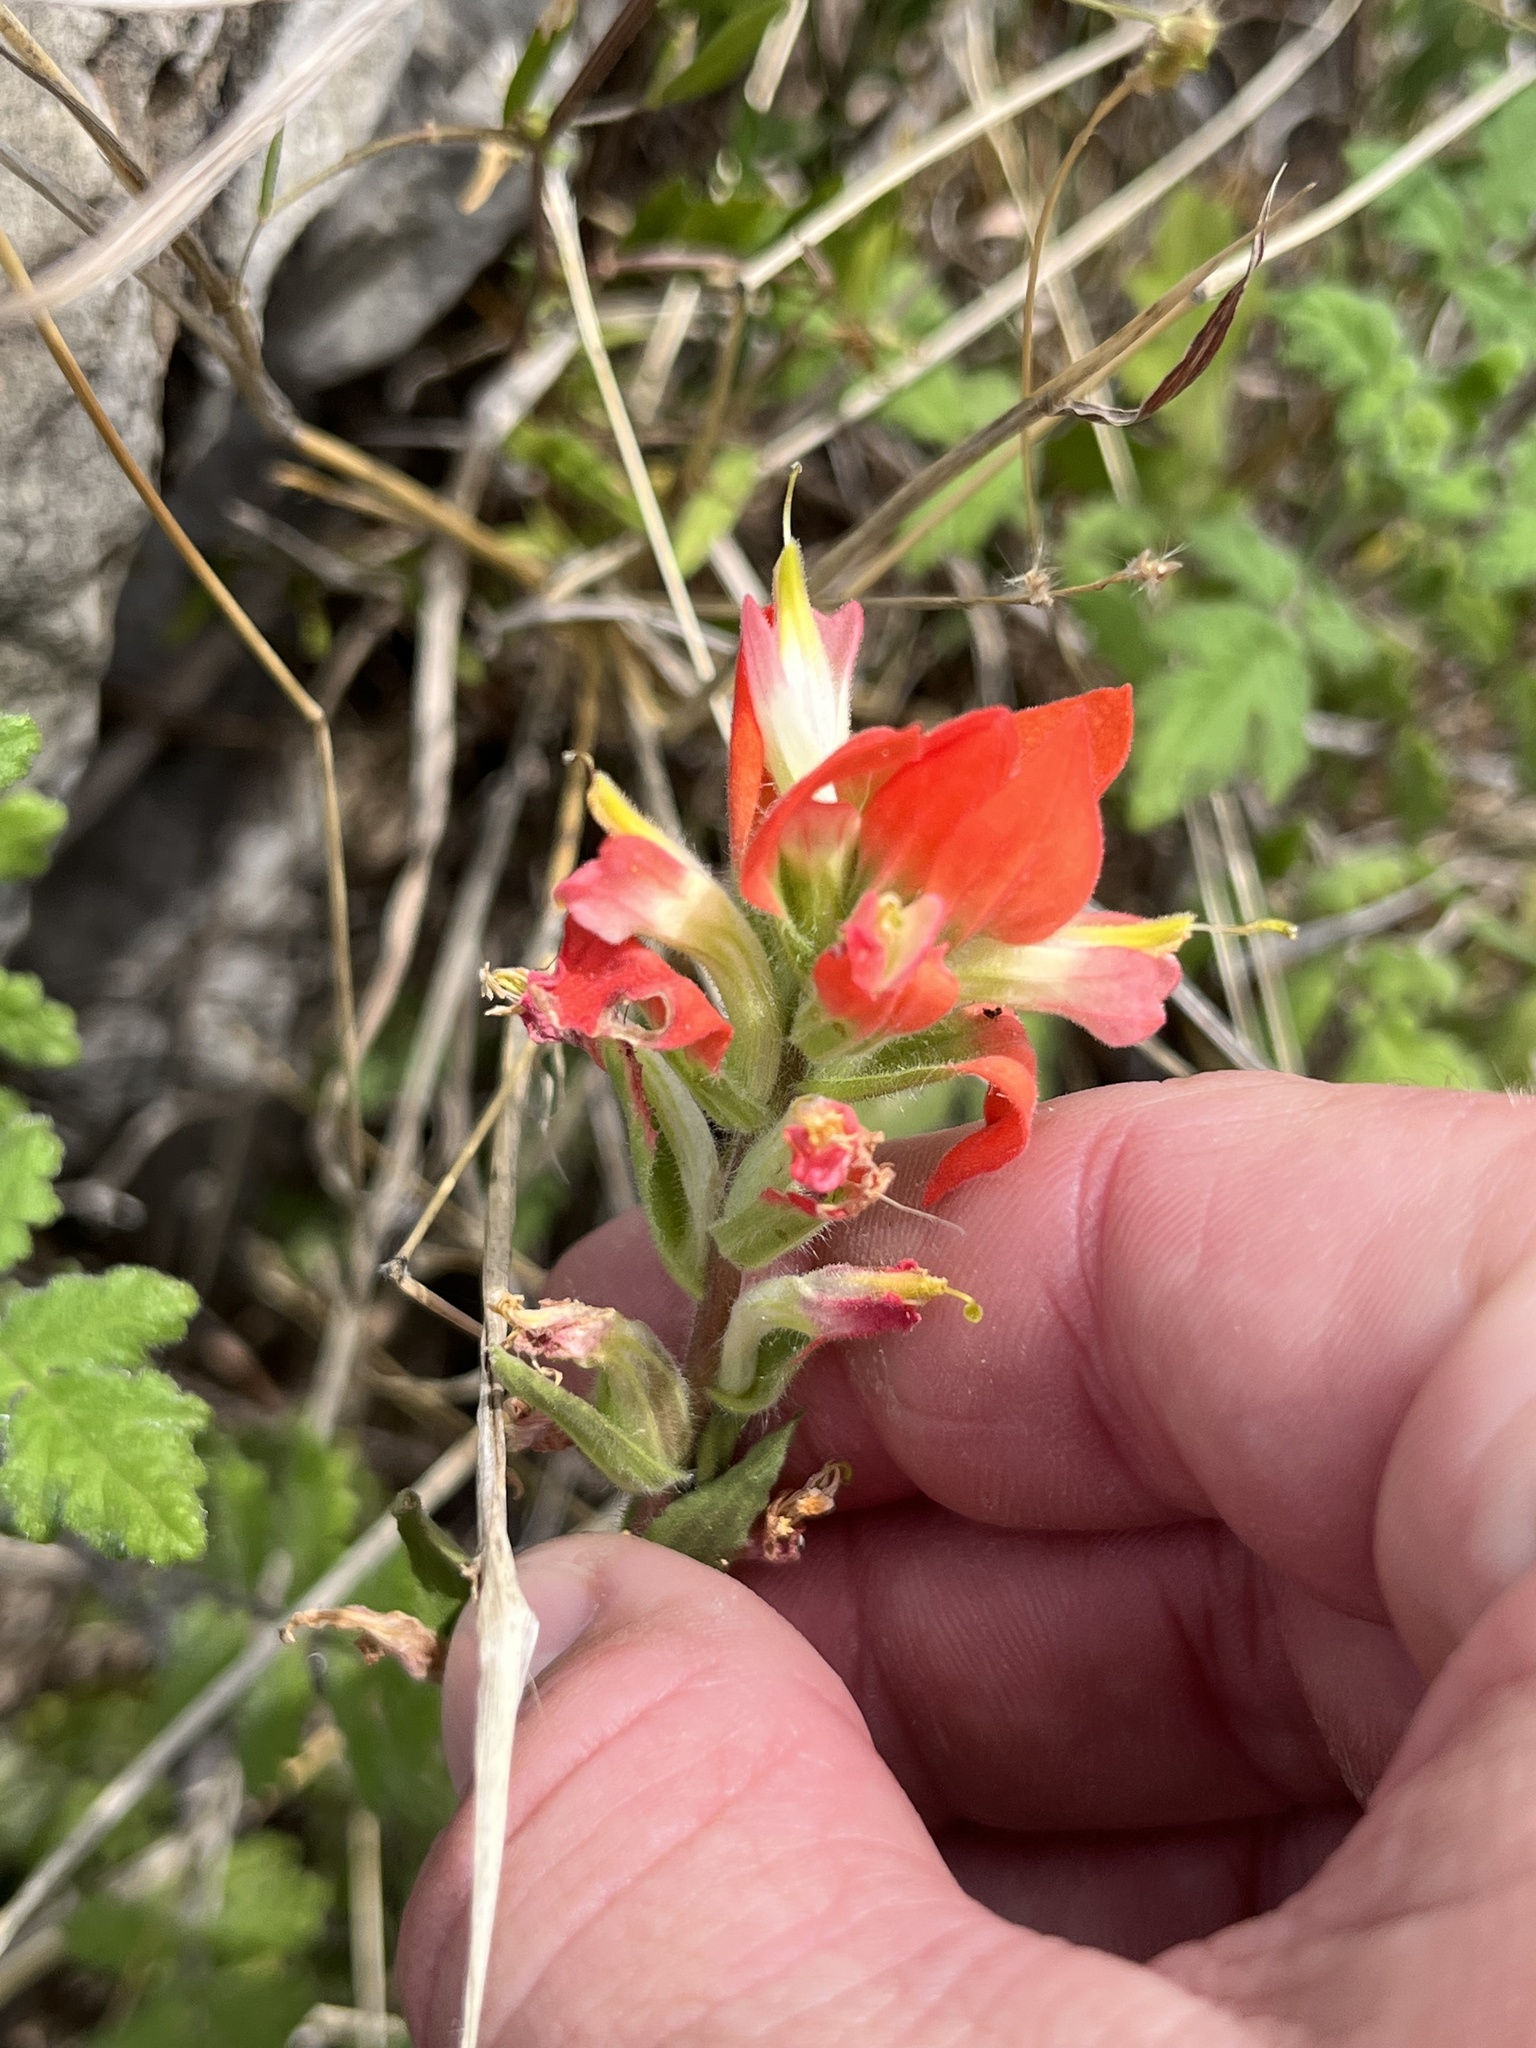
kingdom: Plantae
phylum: Tracheophyta
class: Magnoliopsida
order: Lamiales
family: Orobanchaceae
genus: Castilleja
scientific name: Castilleja indivisa
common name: Texas paintbrush
